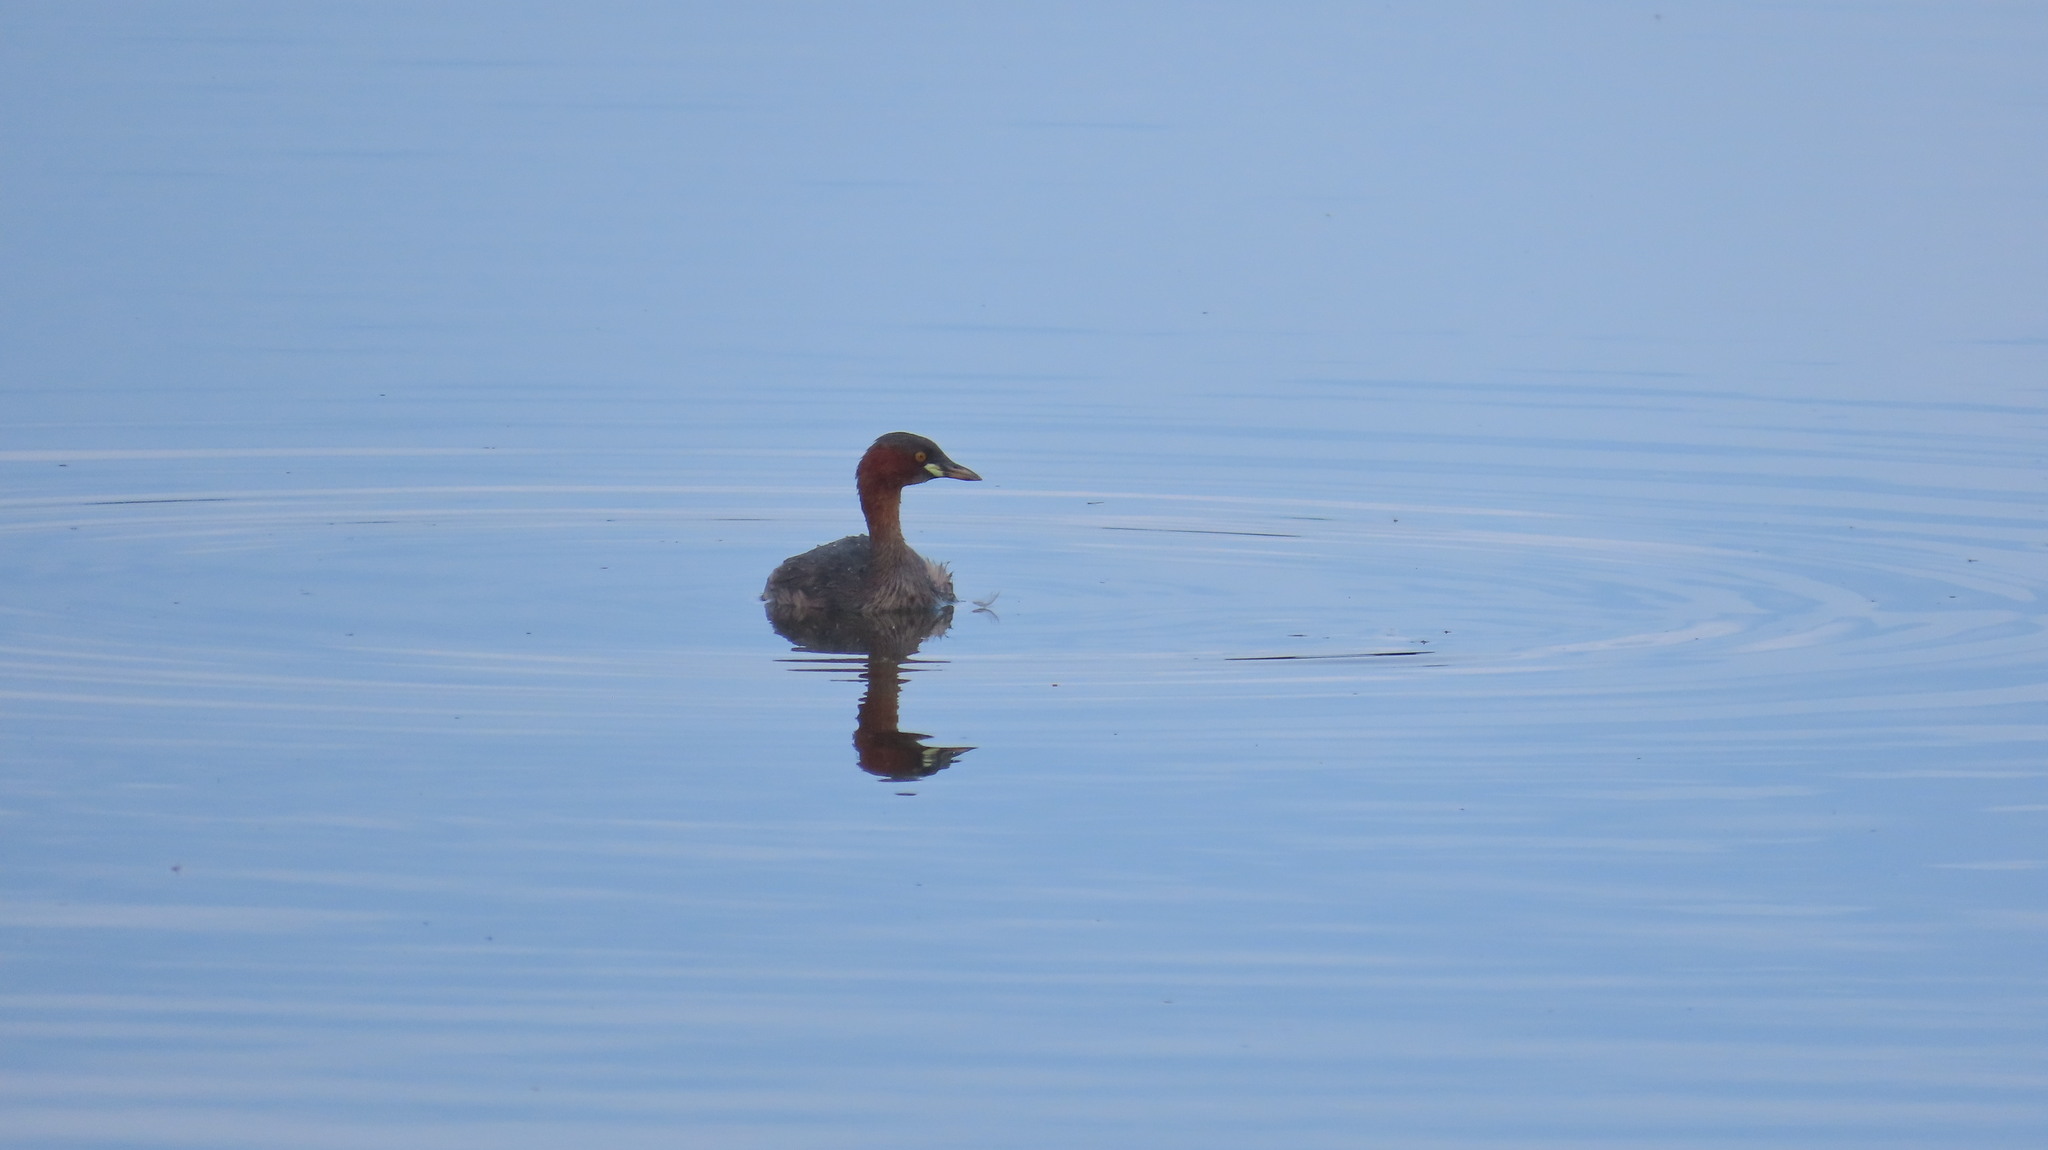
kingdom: Animalia
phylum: Chordata
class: Aves
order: Podicipediformes
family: Podicipedidae
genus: Tachybaptus
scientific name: Tachybaptus ruficollis
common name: Little grebe
